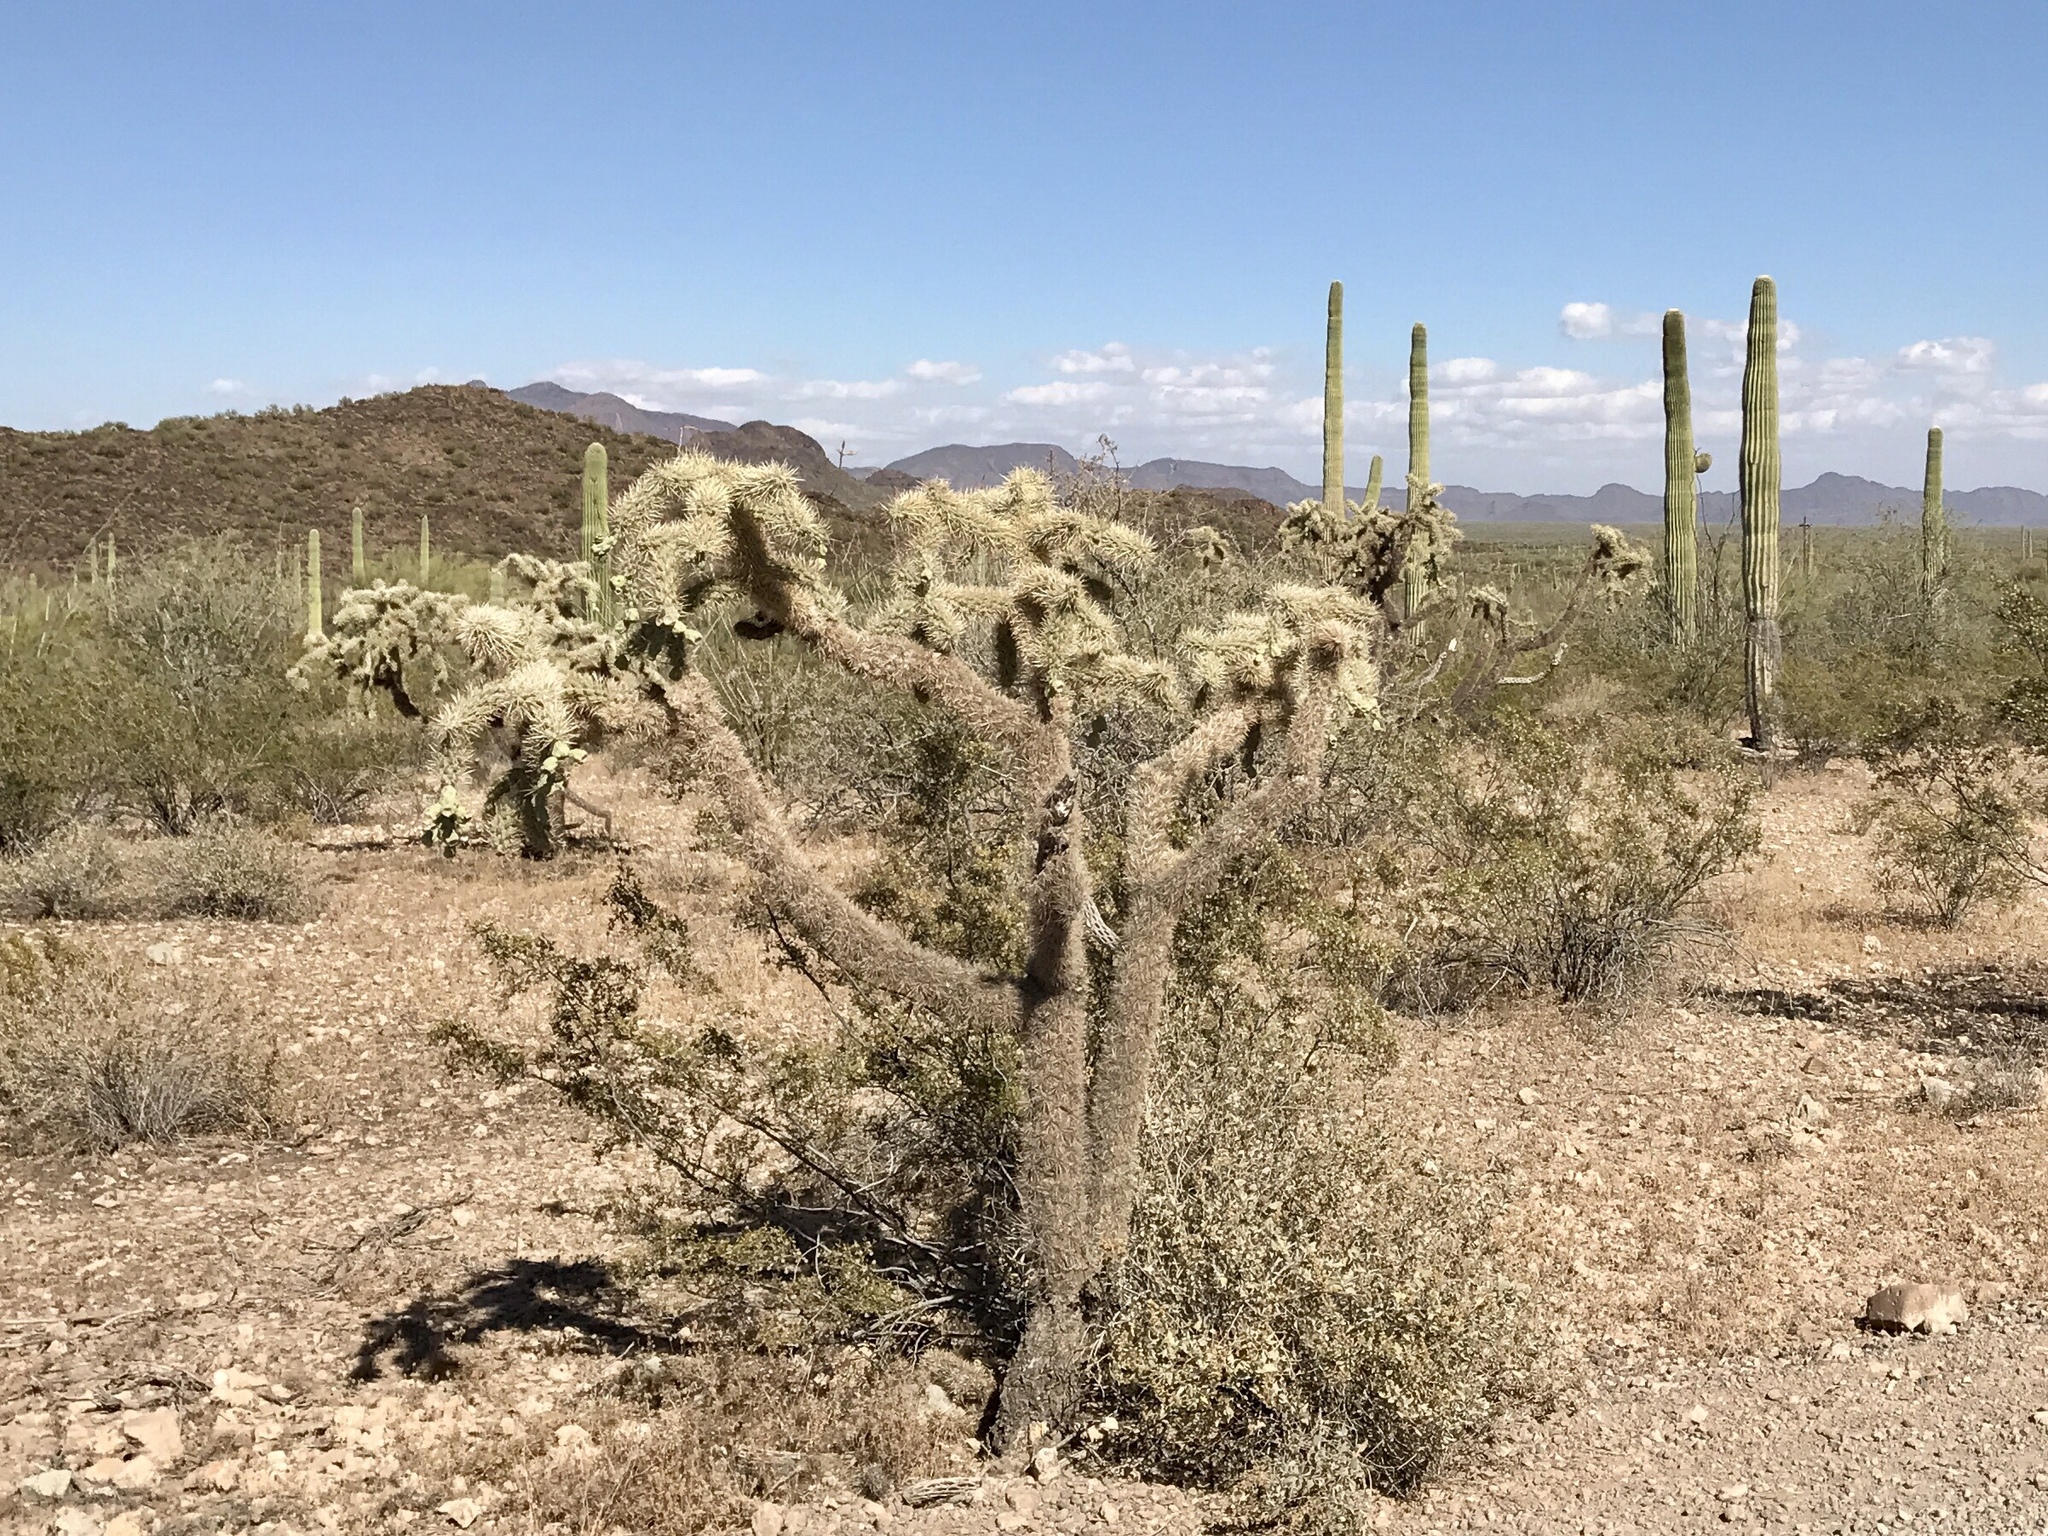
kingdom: Plantae
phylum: Tracheophyta
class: Magnoliopsida
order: Caryophyllales
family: Cactaceae
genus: Cylindropuntia
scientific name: Cylindropuntia fulgida
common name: Jumping cholla
